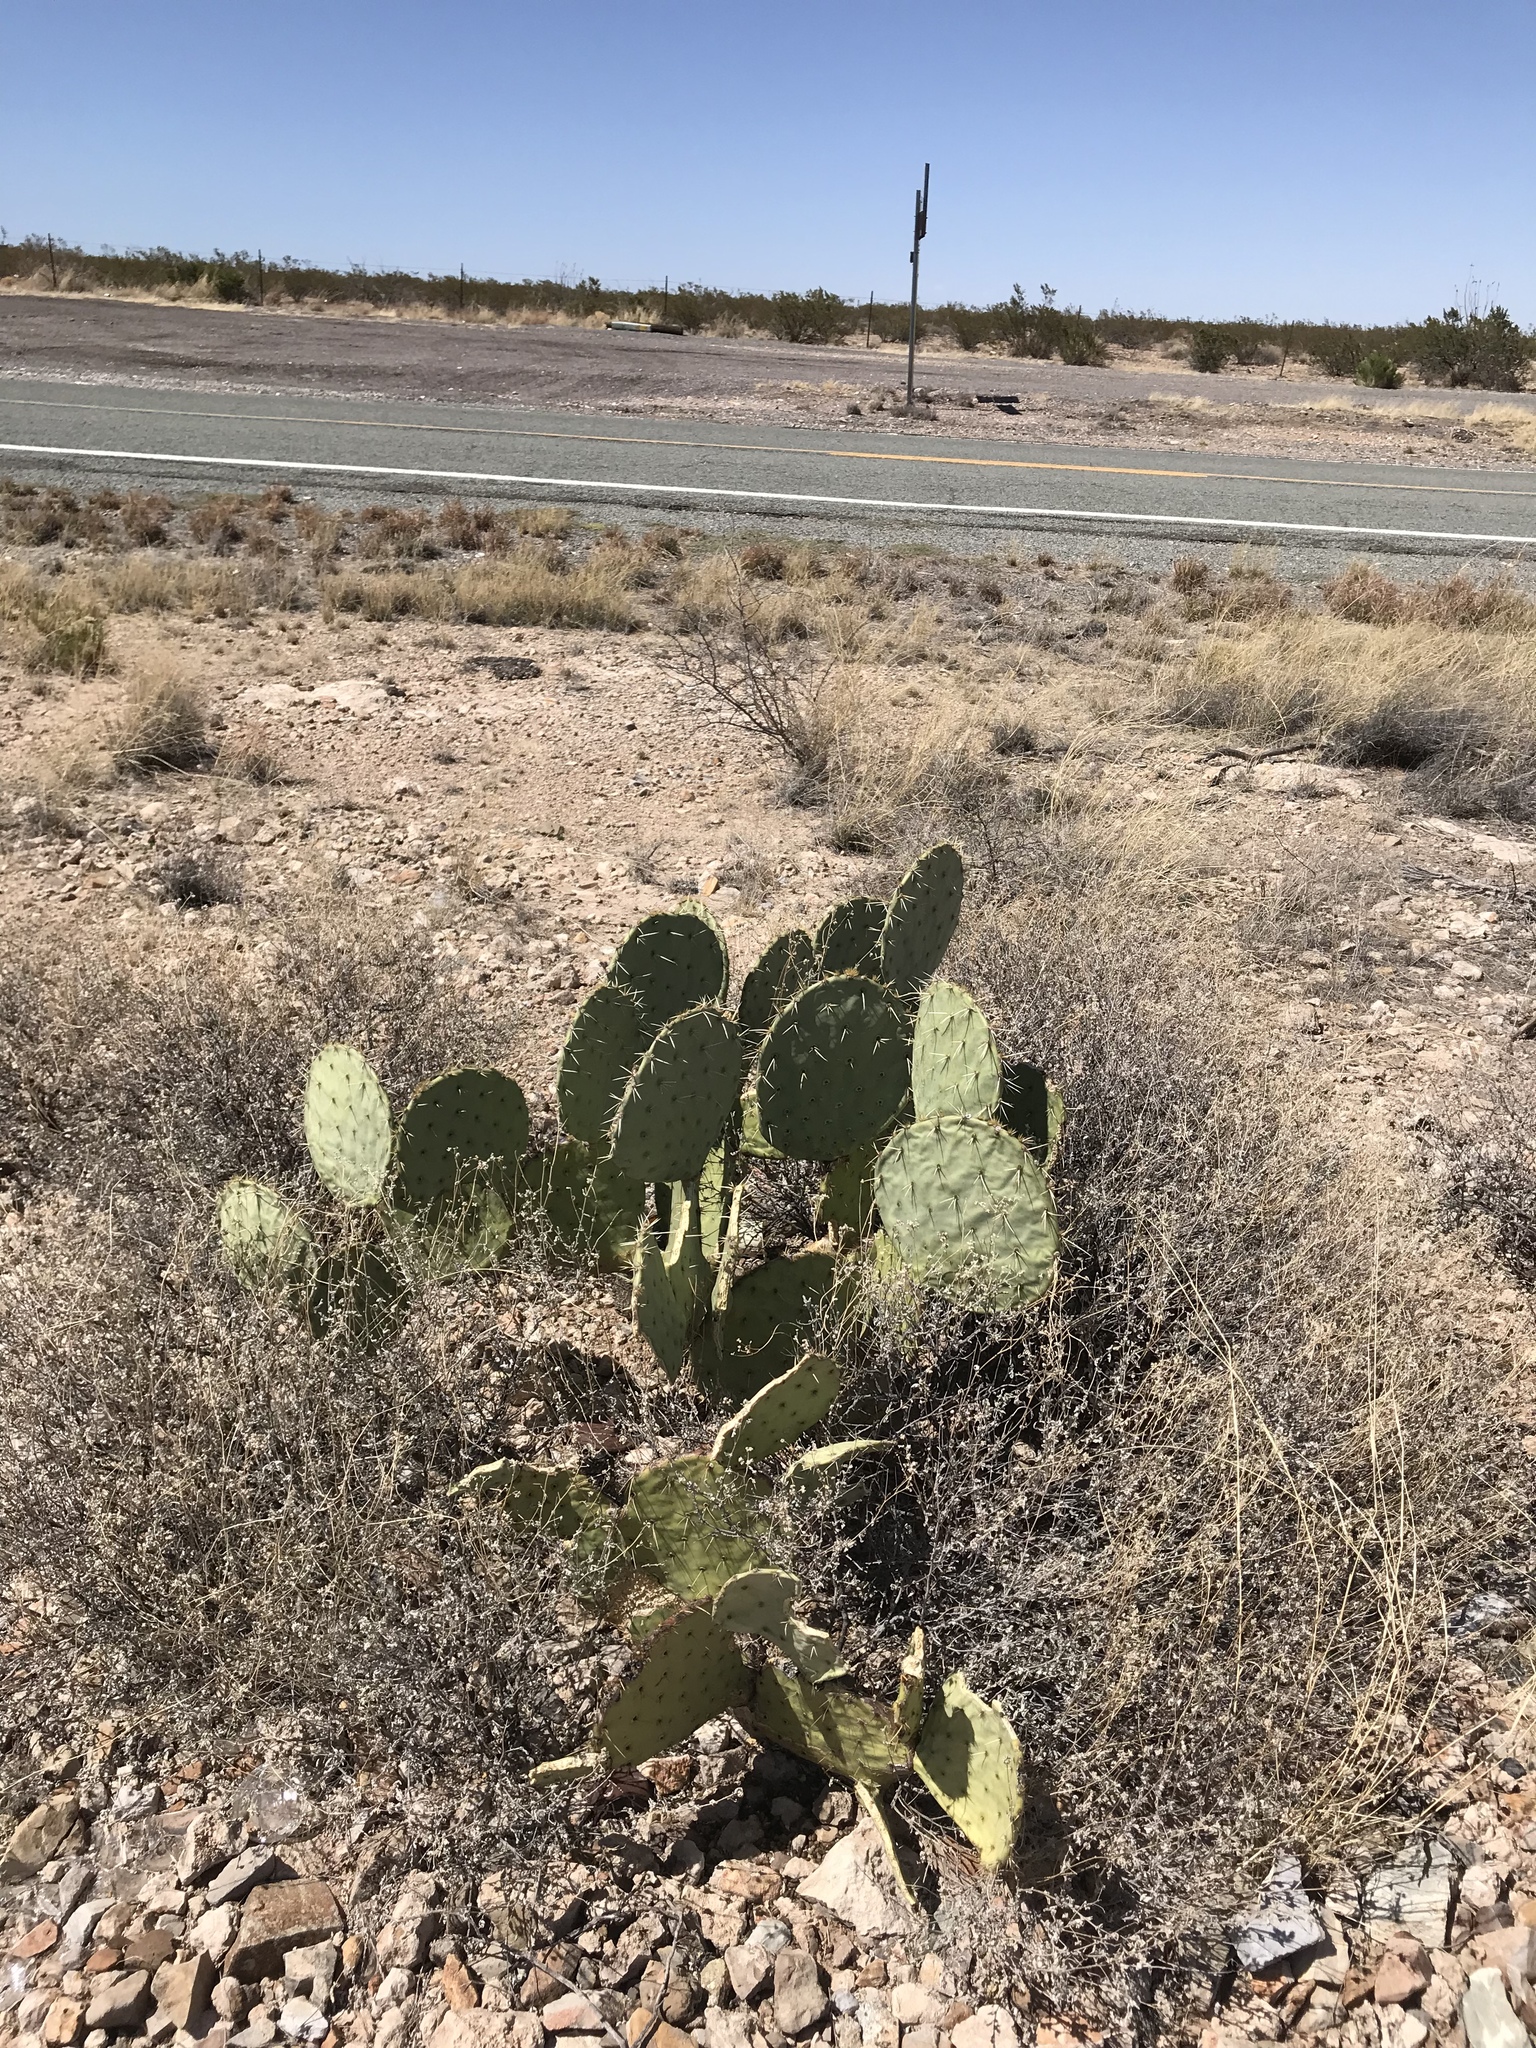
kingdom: Plantae
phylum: Tracheophyta
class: Magnoliopsida
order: Caryophyllales
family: Cactaceae
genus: Opuntia
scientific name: Opuntia orbiculata
